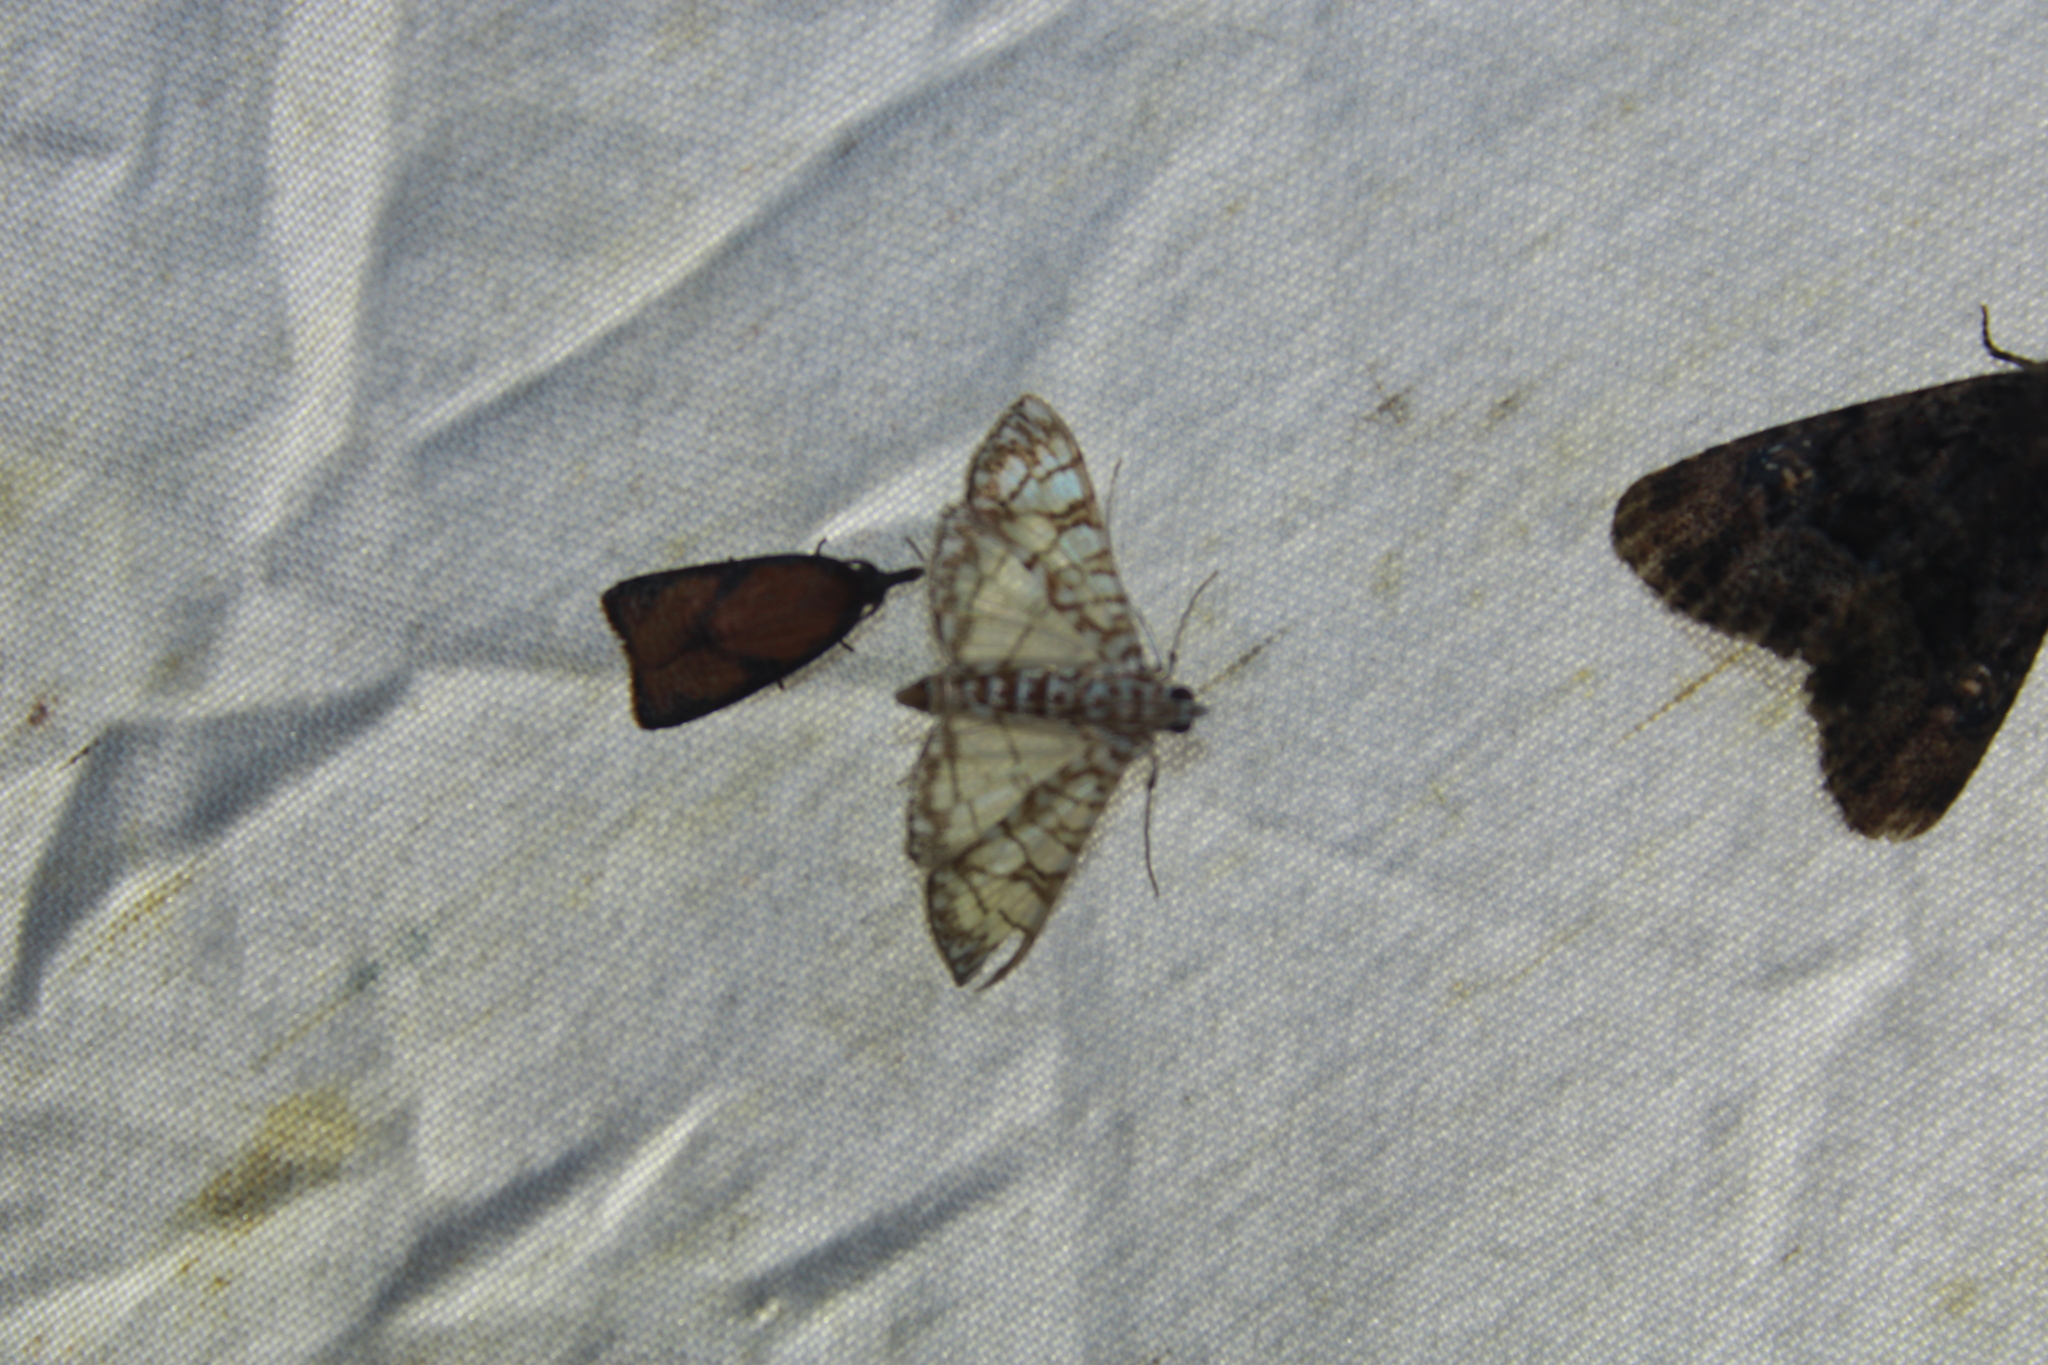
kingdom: Animalia
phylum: Arthropoda
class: Insecta
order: Lepidoptera
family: Crambidae
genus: Synclera
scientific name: Synclera traducalis
